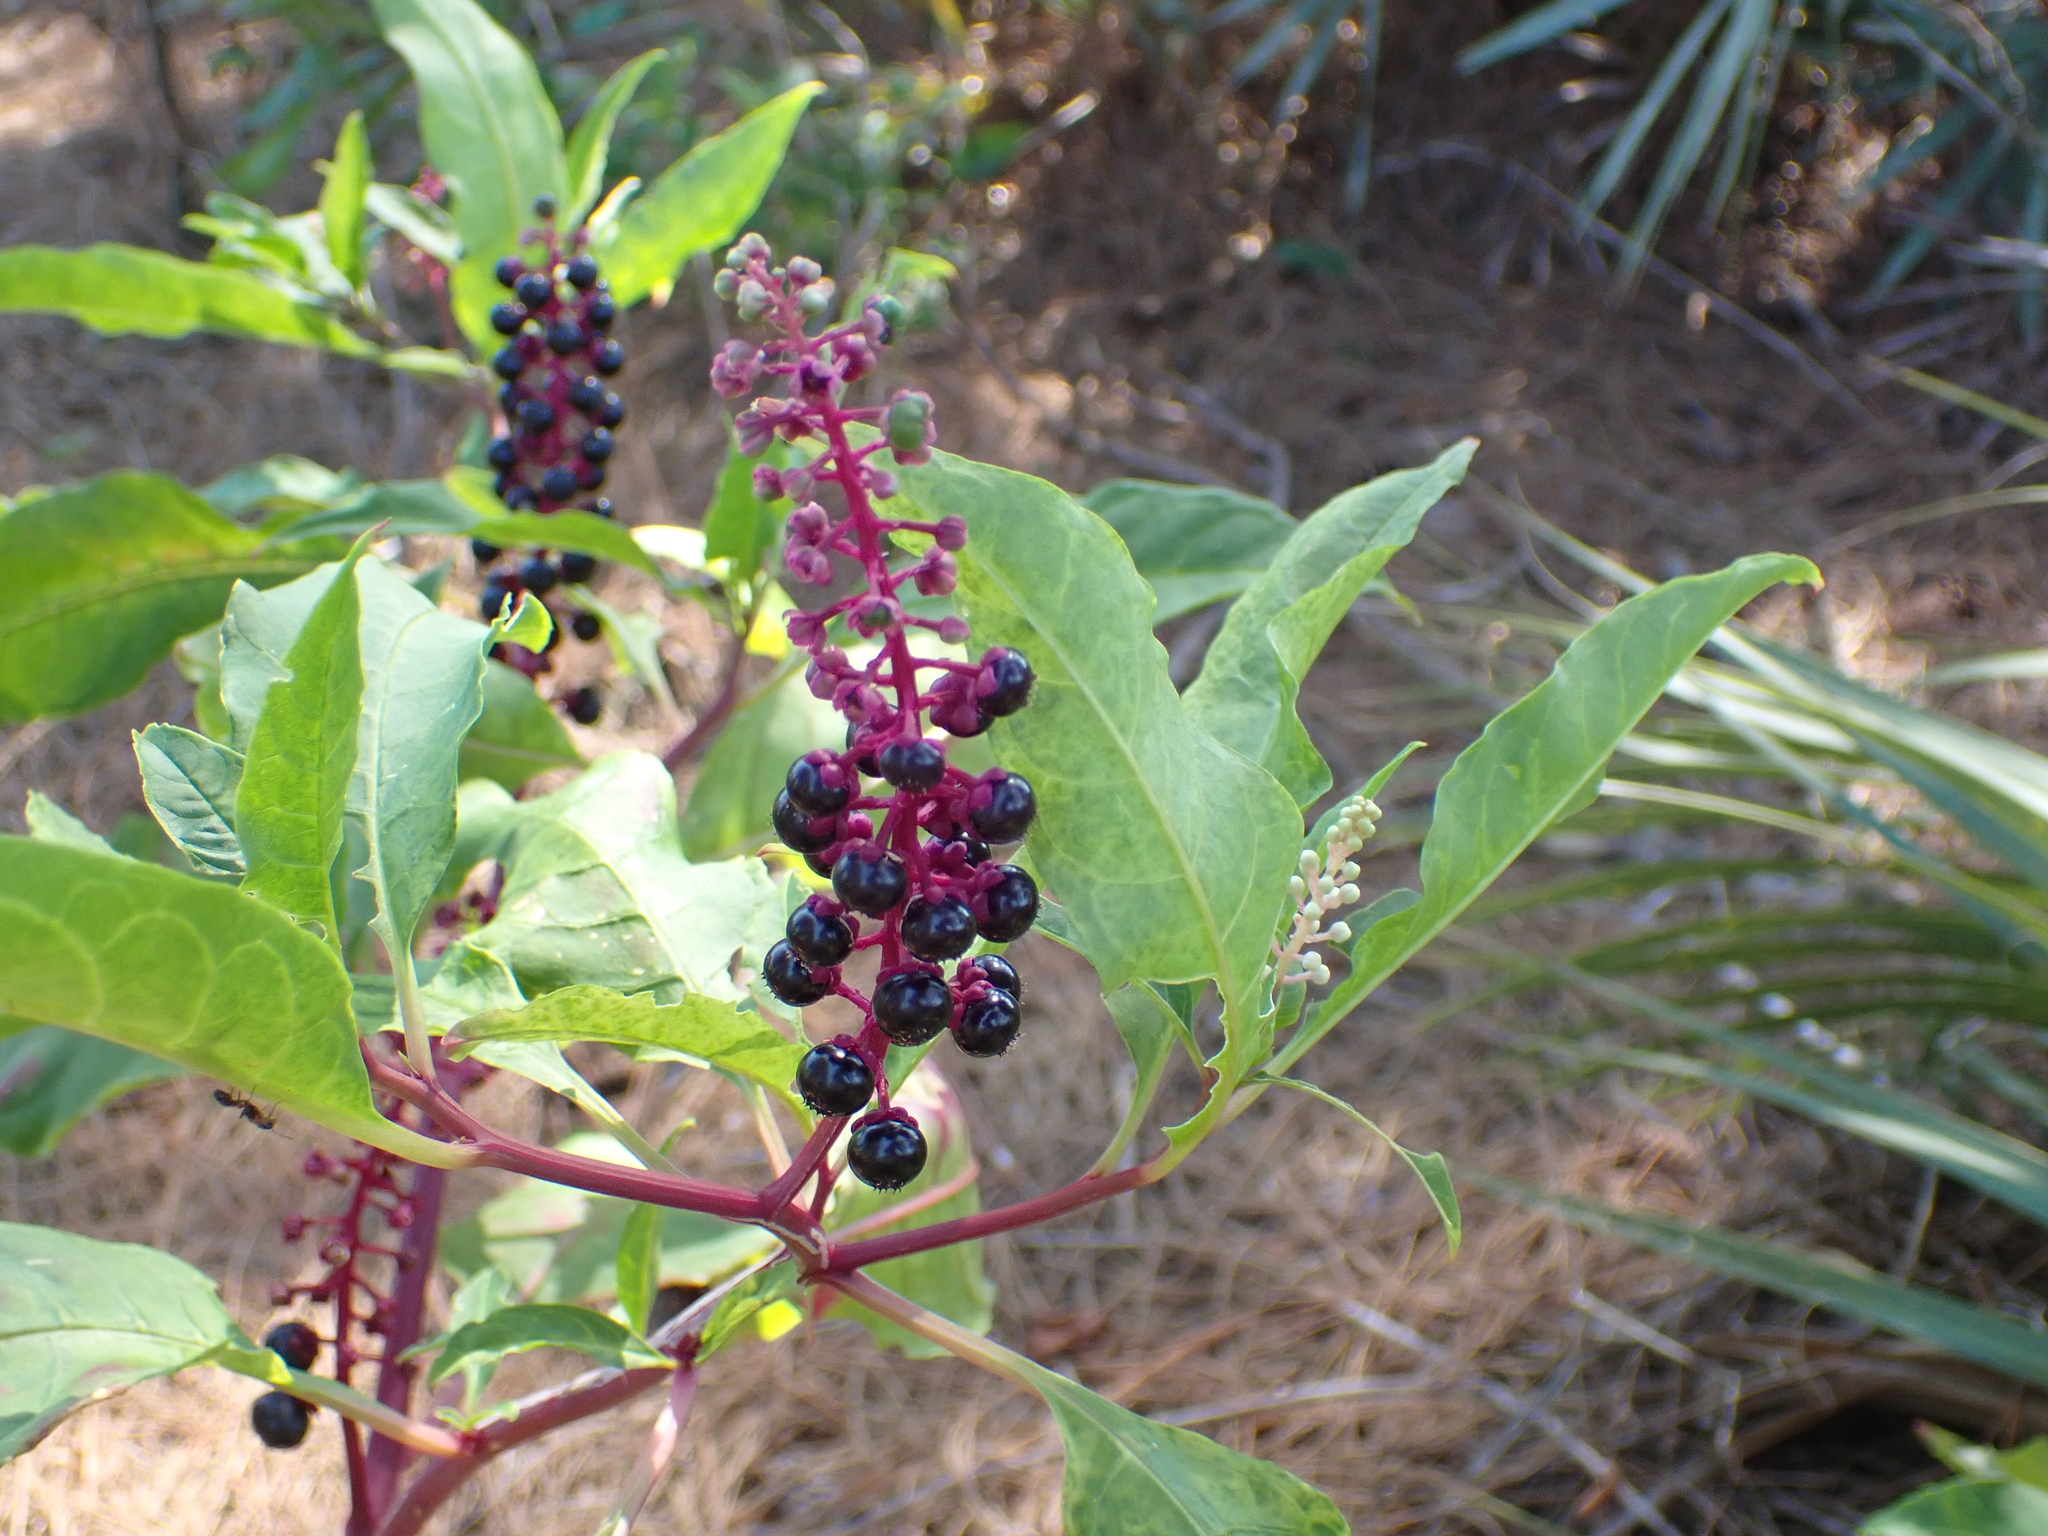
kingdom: Plantae
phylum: Tracheophyta
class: Magnoliopsida
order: Caryophyllales
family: Phytolaccaceae
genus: Phytolacca
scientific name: Phytolacca americana
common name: American pokeweed
